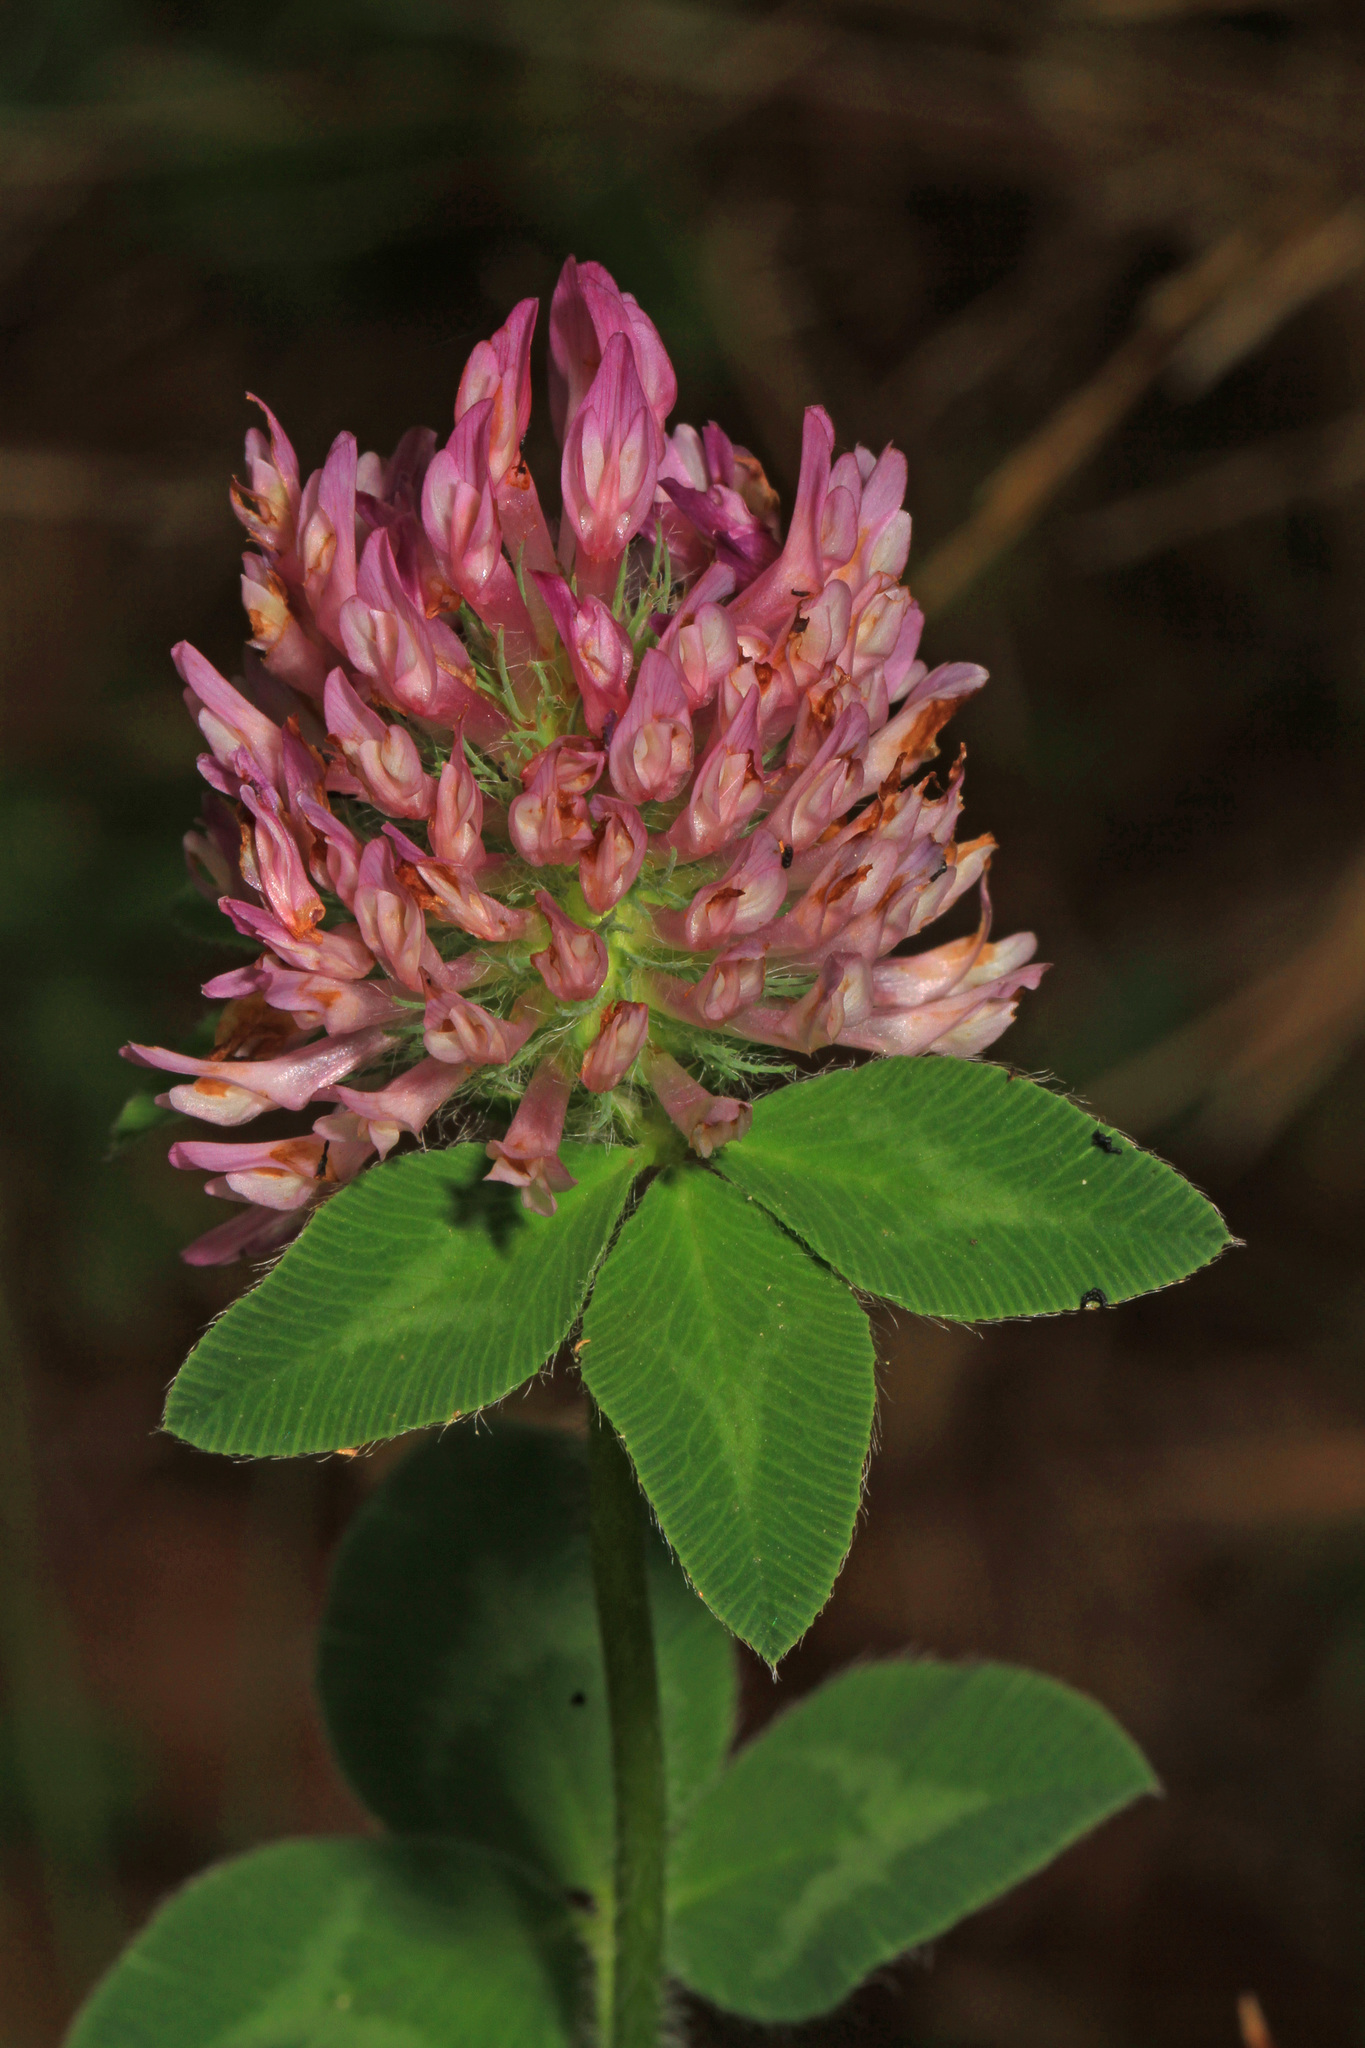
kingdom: Plantae
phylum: Tracheophyta
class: Magnoliopsida
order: Fabales
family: Fabaceae
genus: Trifolium
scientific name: Trifolium pratense
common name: Red clover
